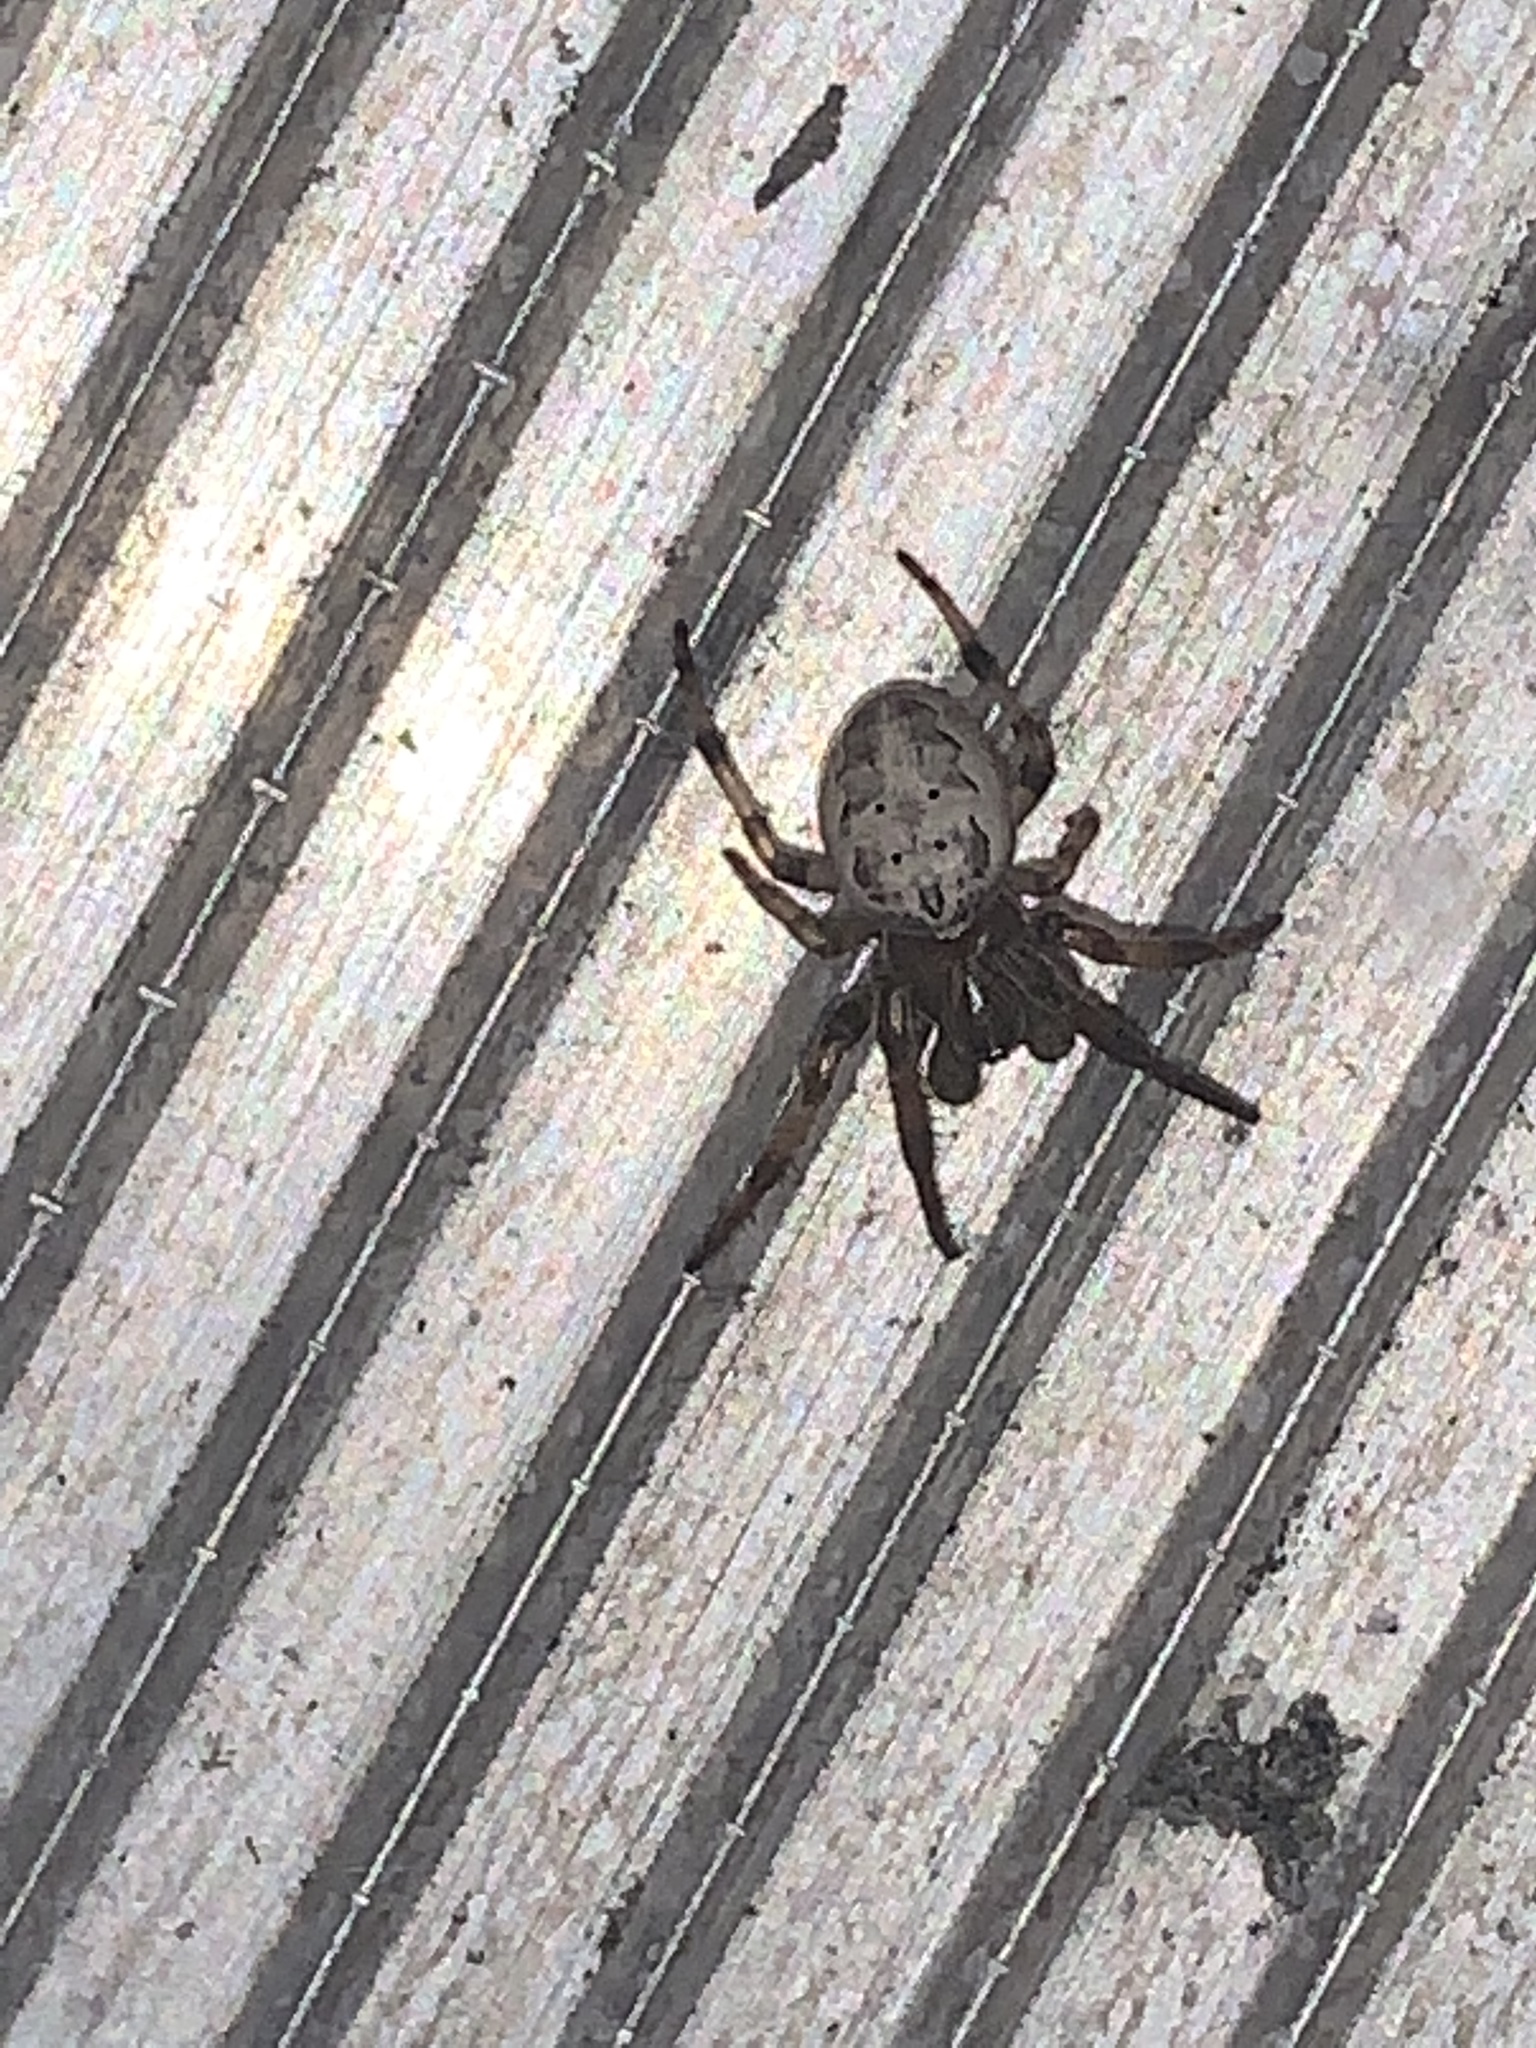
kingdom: Animalia
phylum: Arthropoda
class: Arachnida
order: Araneae
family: Araneidae
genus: Larinioides
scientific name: Larinioides cornutus
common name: Furrow orbweaver
